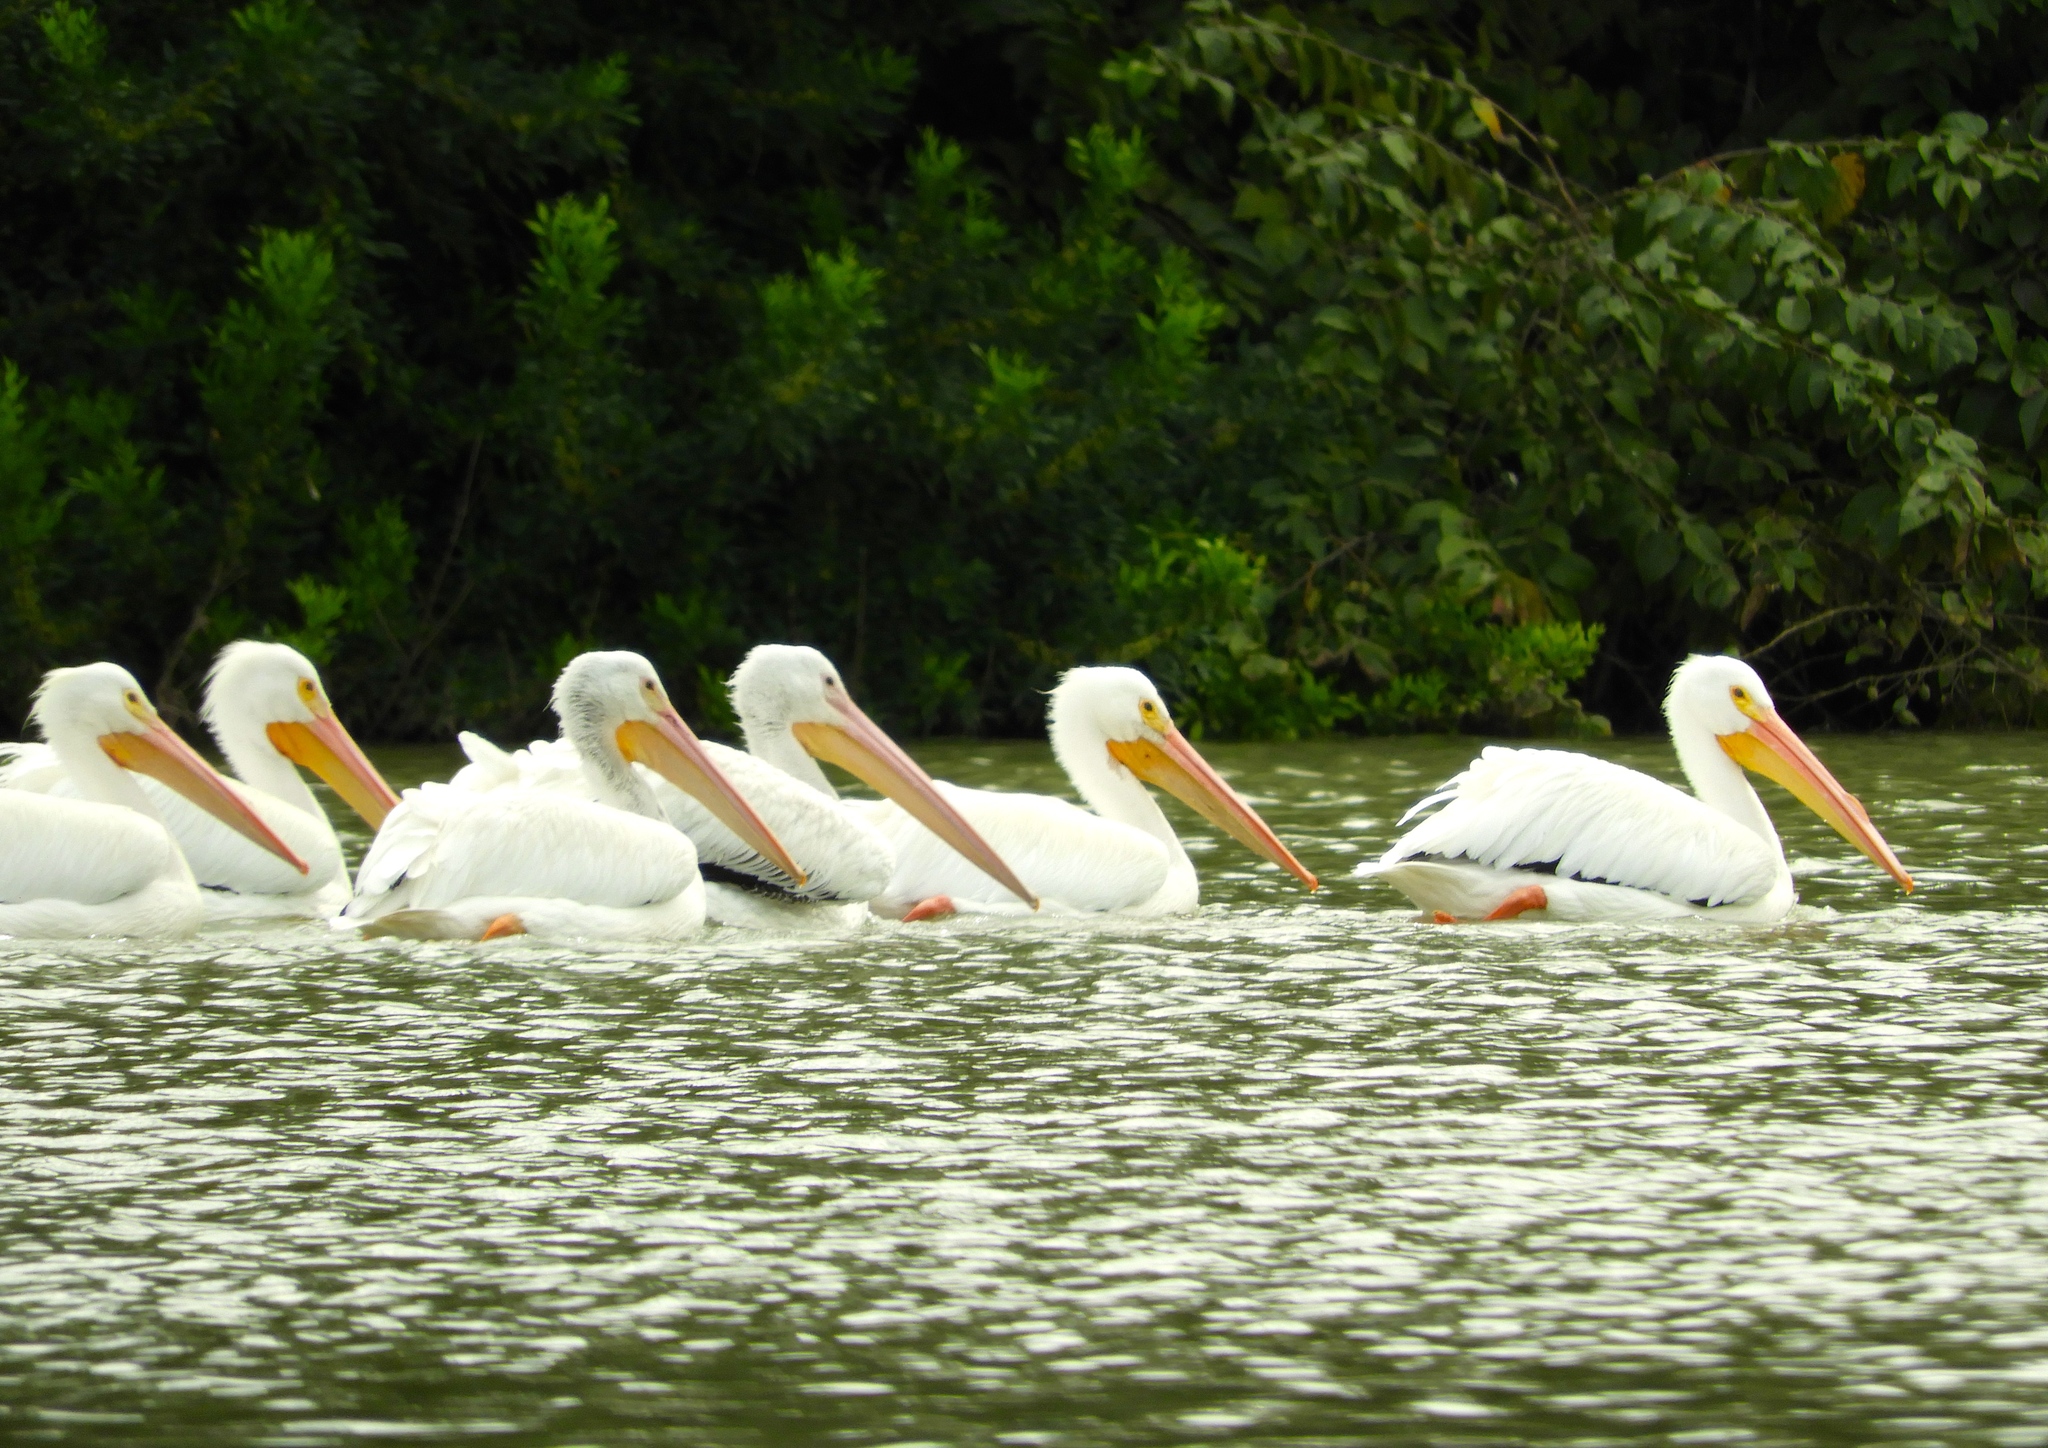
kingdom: Animalia
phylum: Chordata
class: Aves
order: Pelecaniformes
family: Pelecanidae
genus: Pelecanus
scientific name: Pelecanus erythrorhynchos
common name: American white pelican
